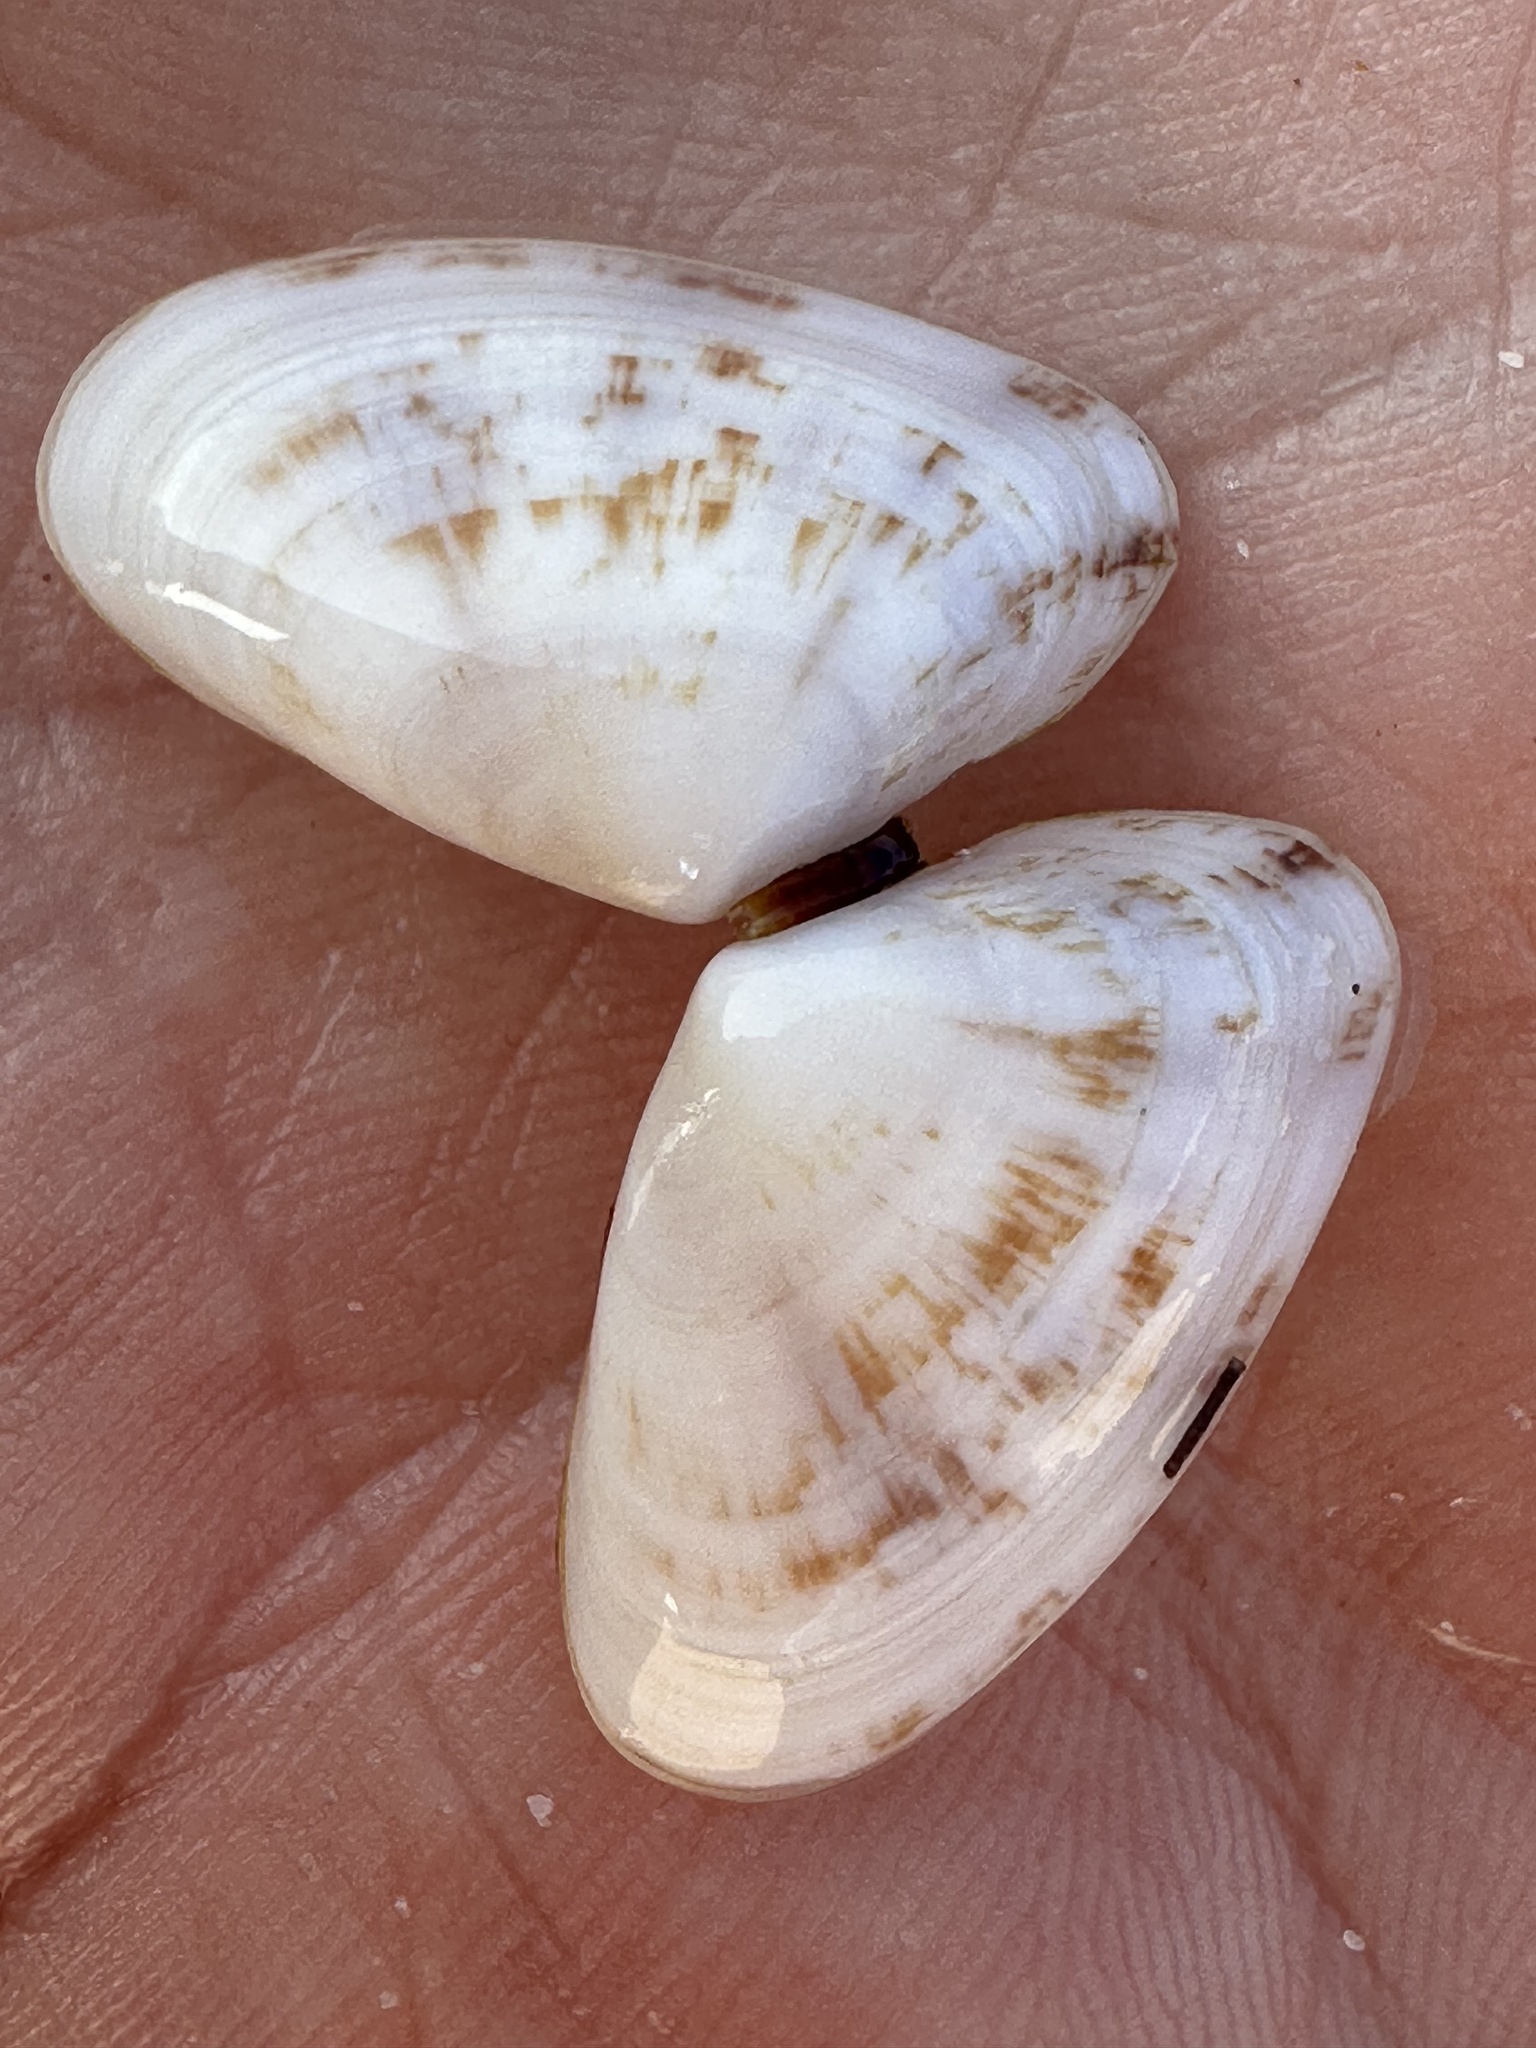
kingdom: Animalia
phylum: Mollusca
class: Bivalvia
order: Cardiida
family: Donacidae
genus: Donax
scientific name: Donax faba
